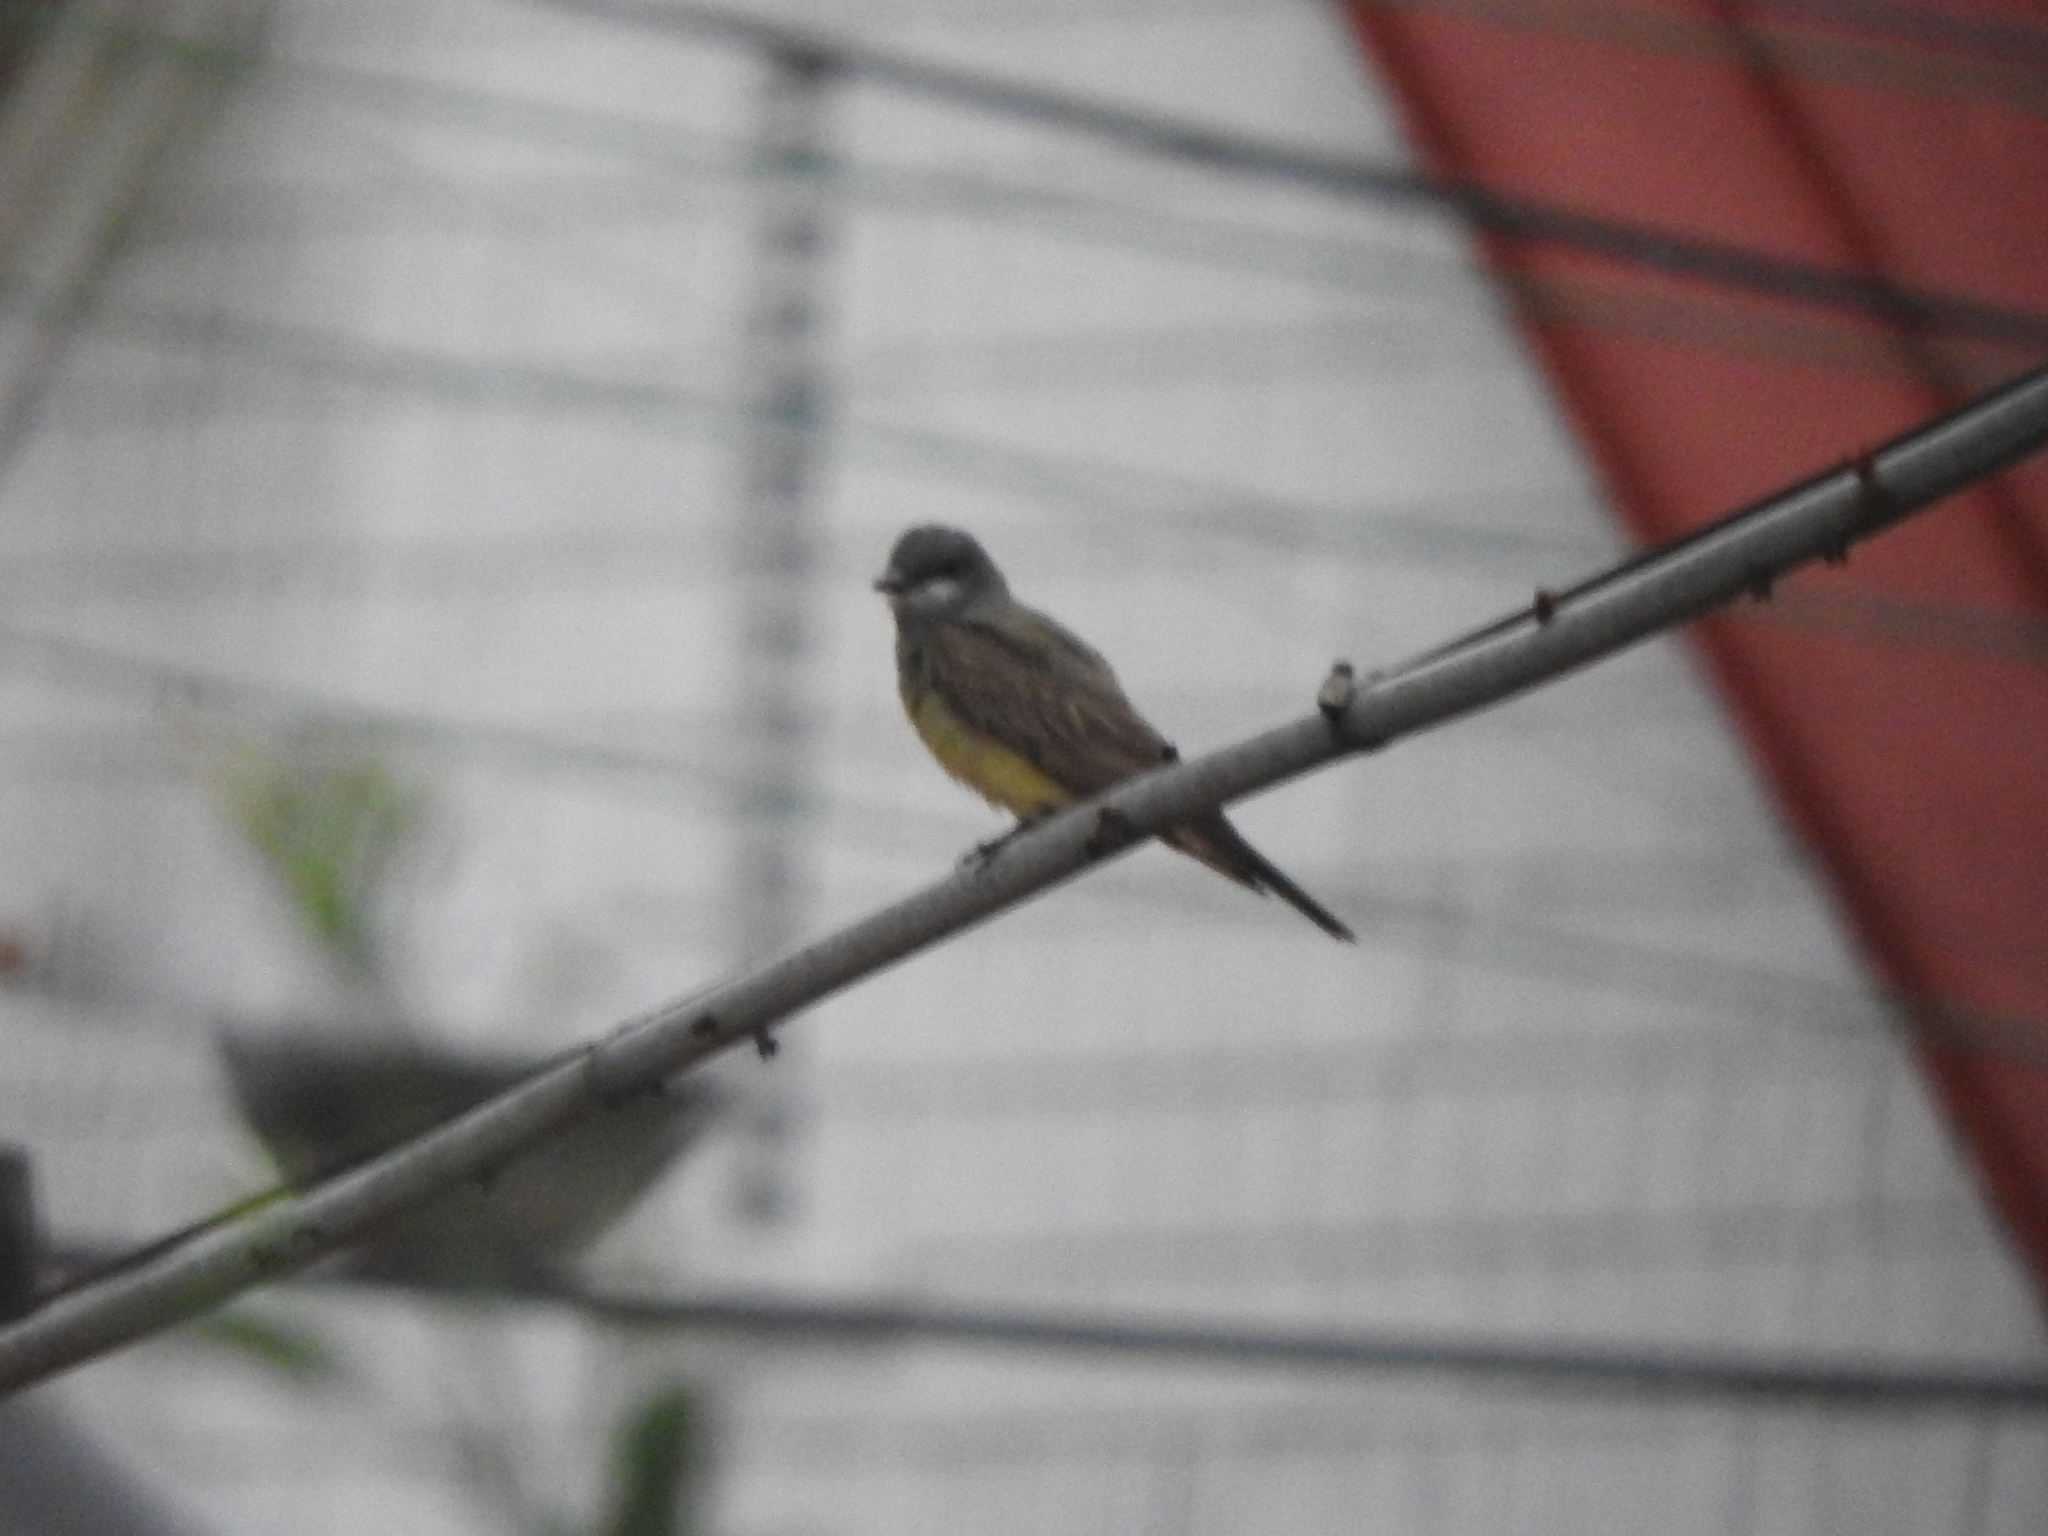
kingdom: Animalia
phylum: Chordata
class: Aves
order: Passeriformes
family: Tyrannidae
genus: Tyrannus
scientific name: Tyrannus vociferans
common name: Cassin's kingbird
